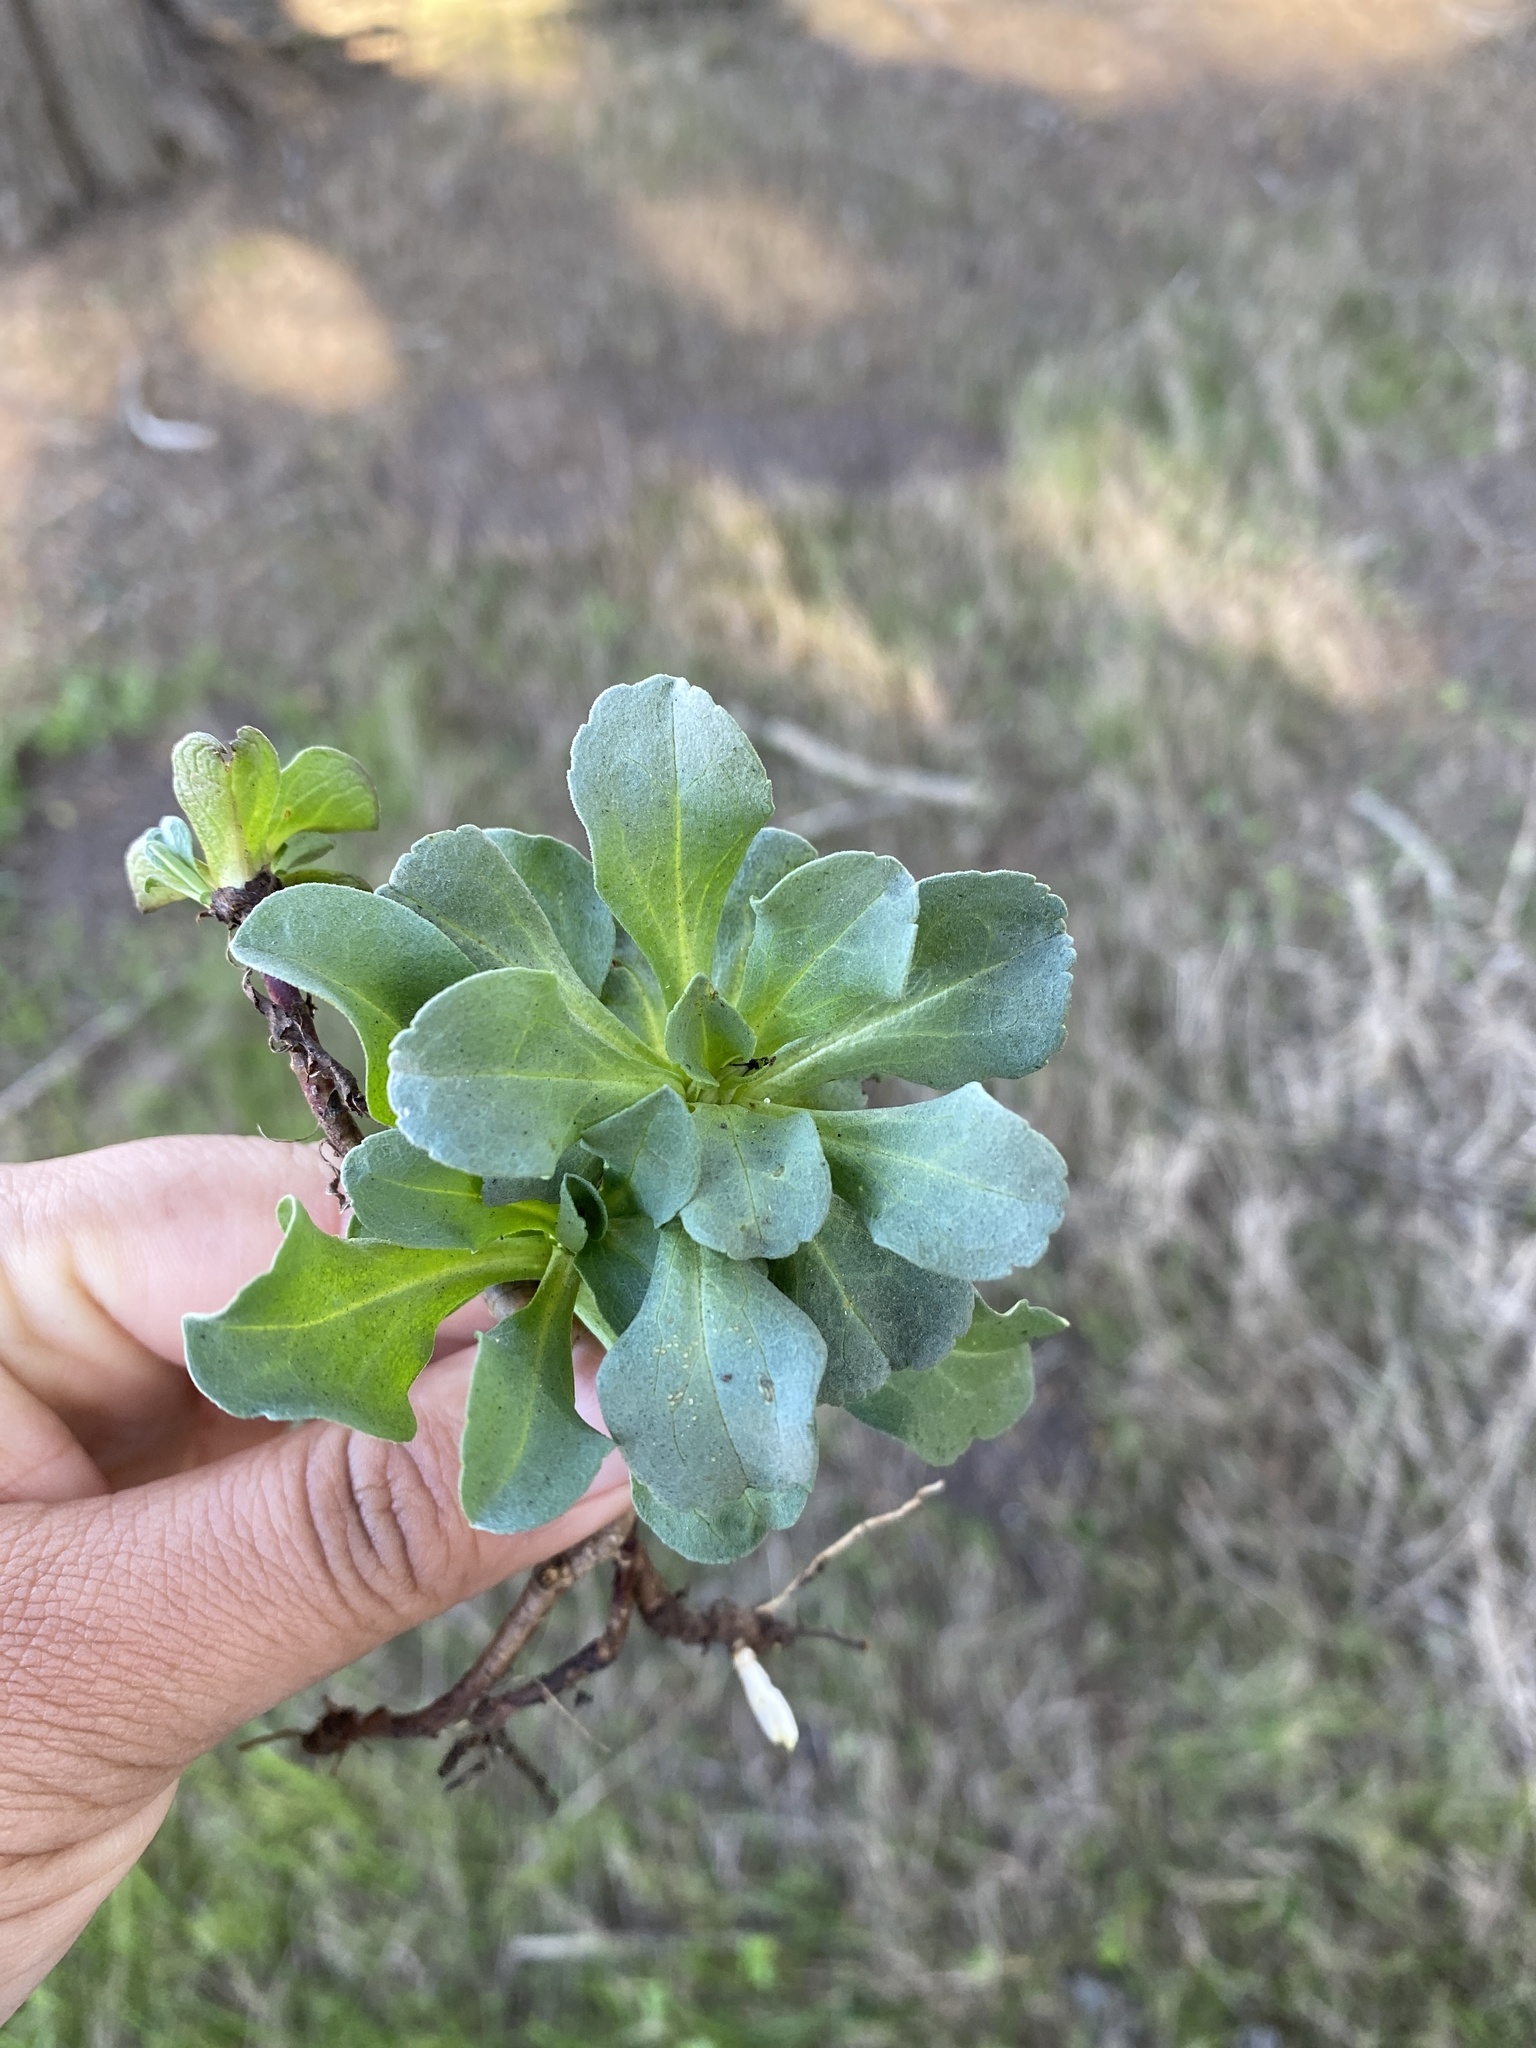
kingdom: Plantae
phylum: Tracheophyta
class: Magnoliopsida
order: Asterales
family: Asteraceae
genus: Erigeron
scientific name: Erigeron glaucus
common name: Seaside daisy
